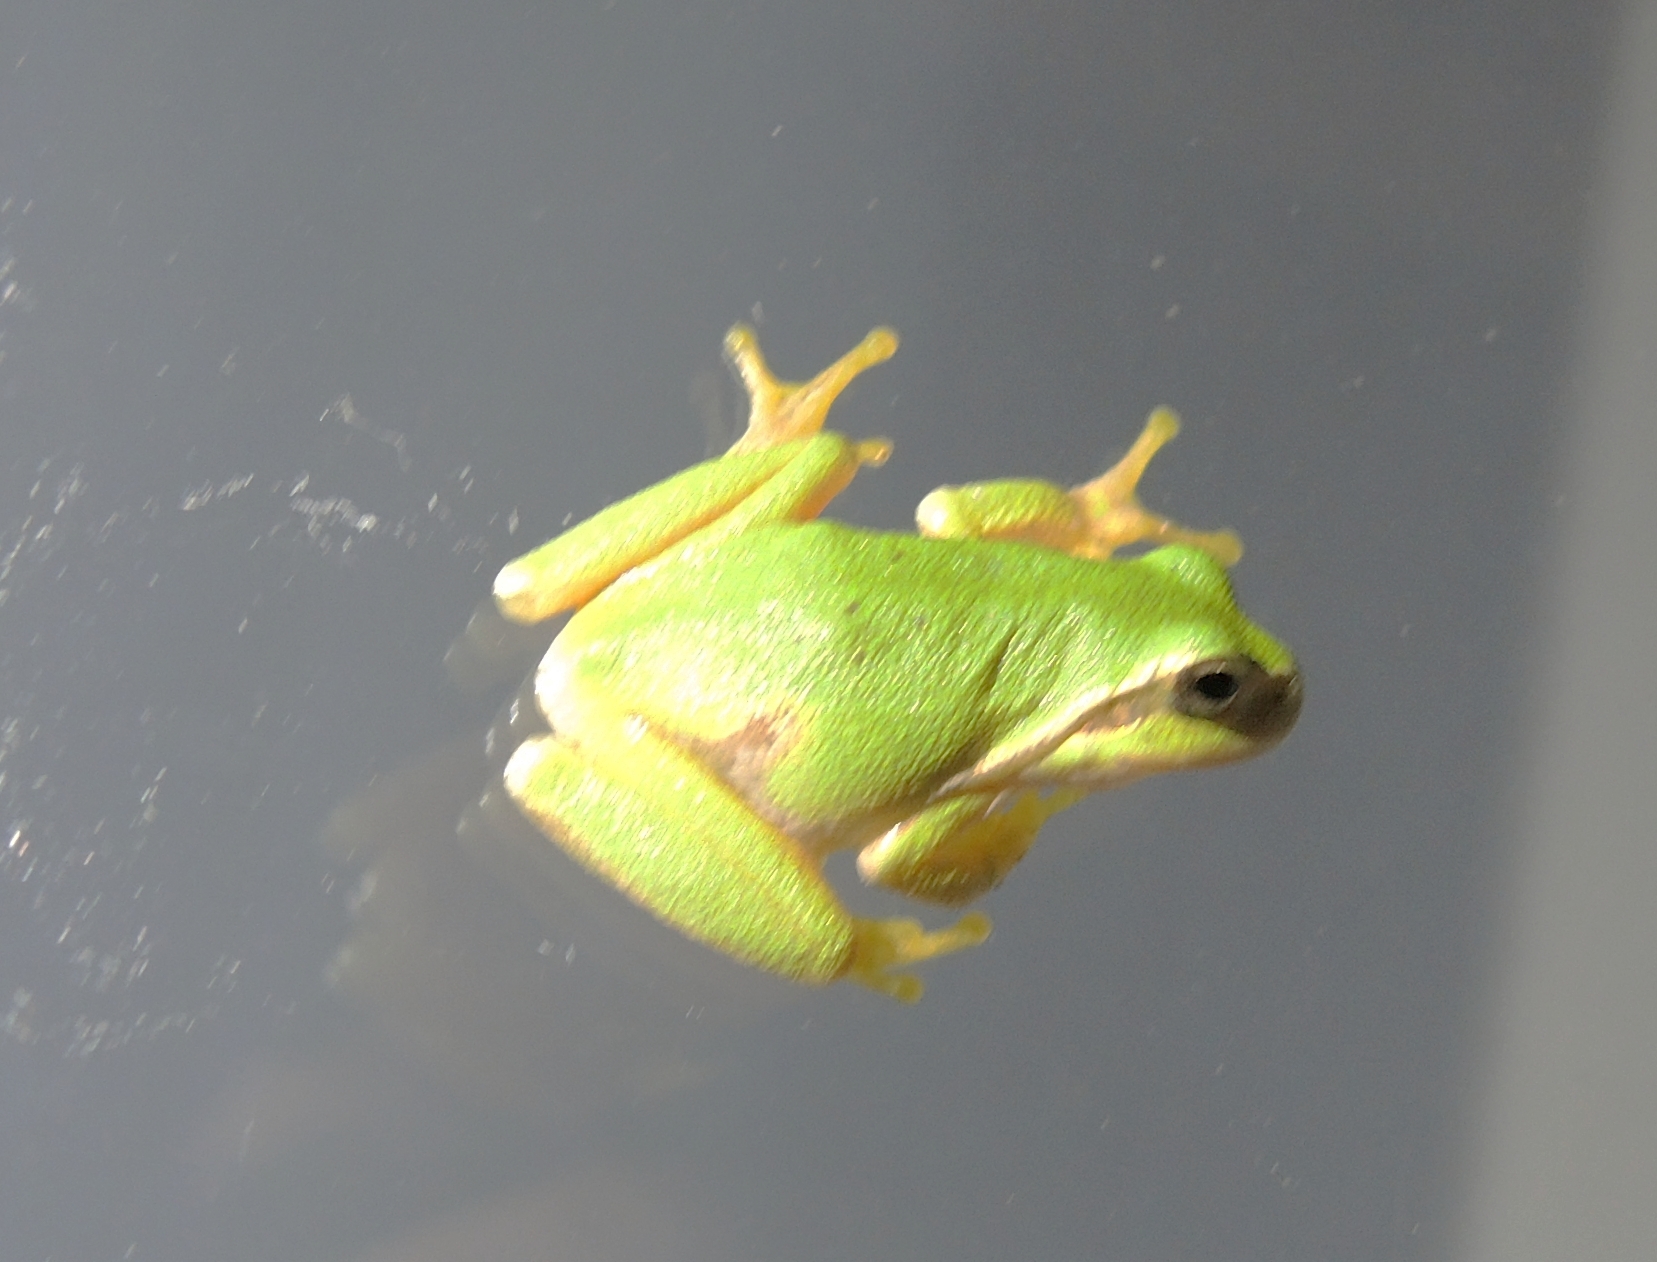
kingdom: Animalia
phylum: Chordata
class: Amphibia
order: Anura
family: Hylidae
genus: Hyla
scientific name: Hyla orientalis
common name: Caucasian treefrog
